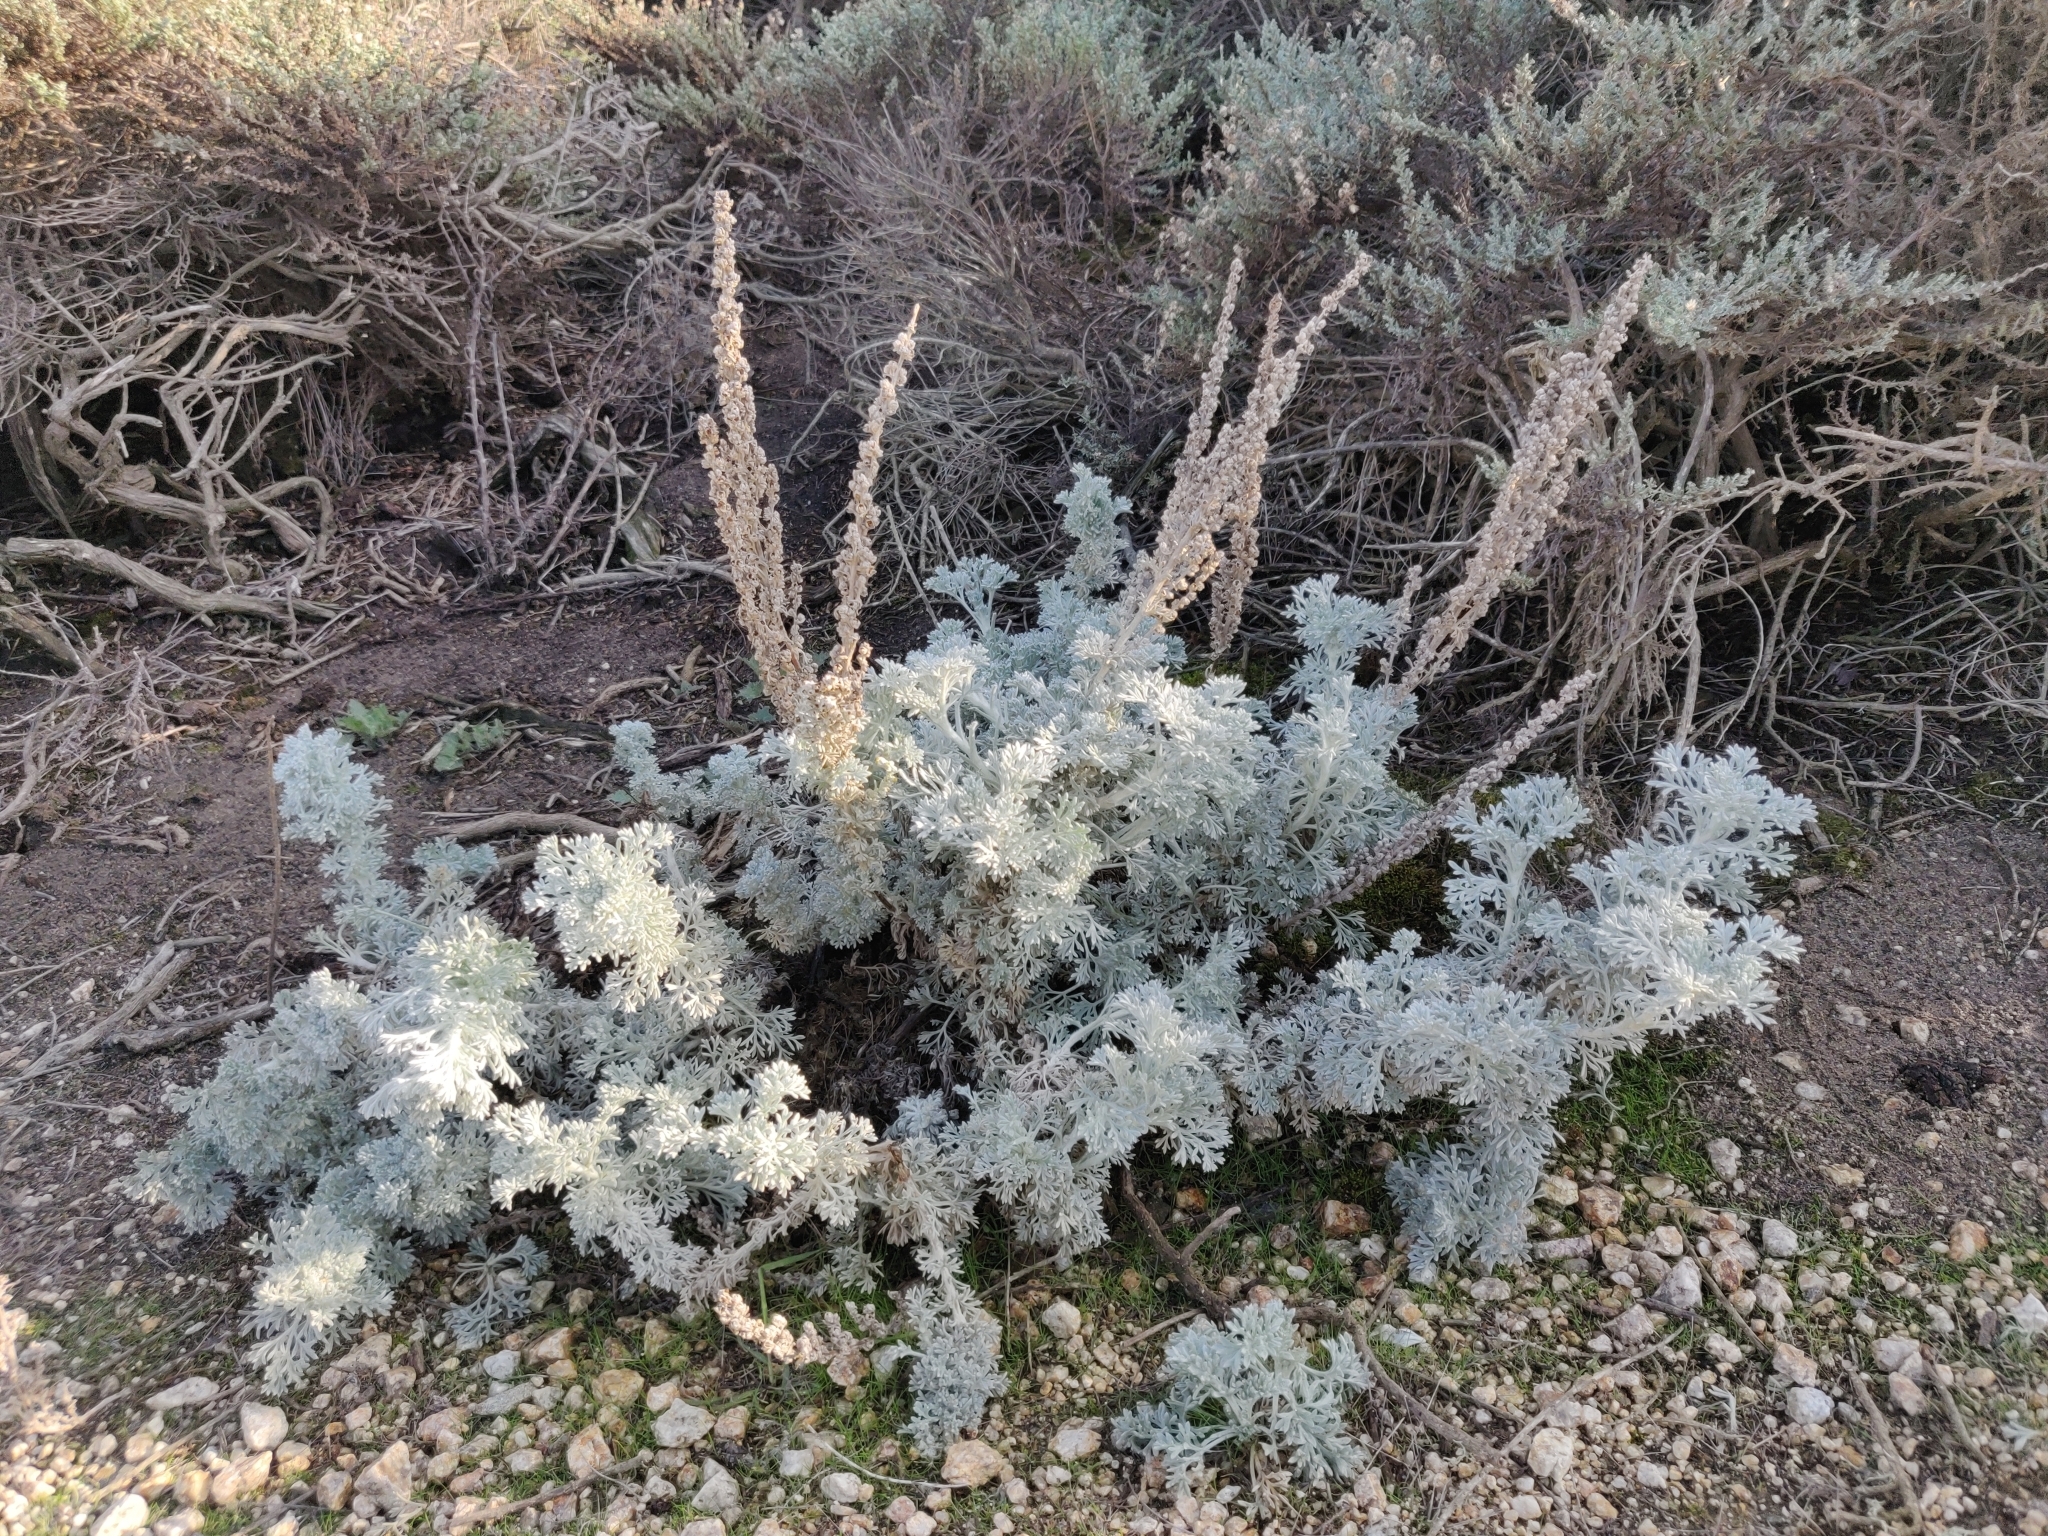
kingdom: Plantae
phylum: Tracheophyta
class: Magnoliopsida
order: Asterales
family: Asteraceae
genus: Artemisia
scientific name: Artemisia pycnocephala
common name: Coastal sagewort
